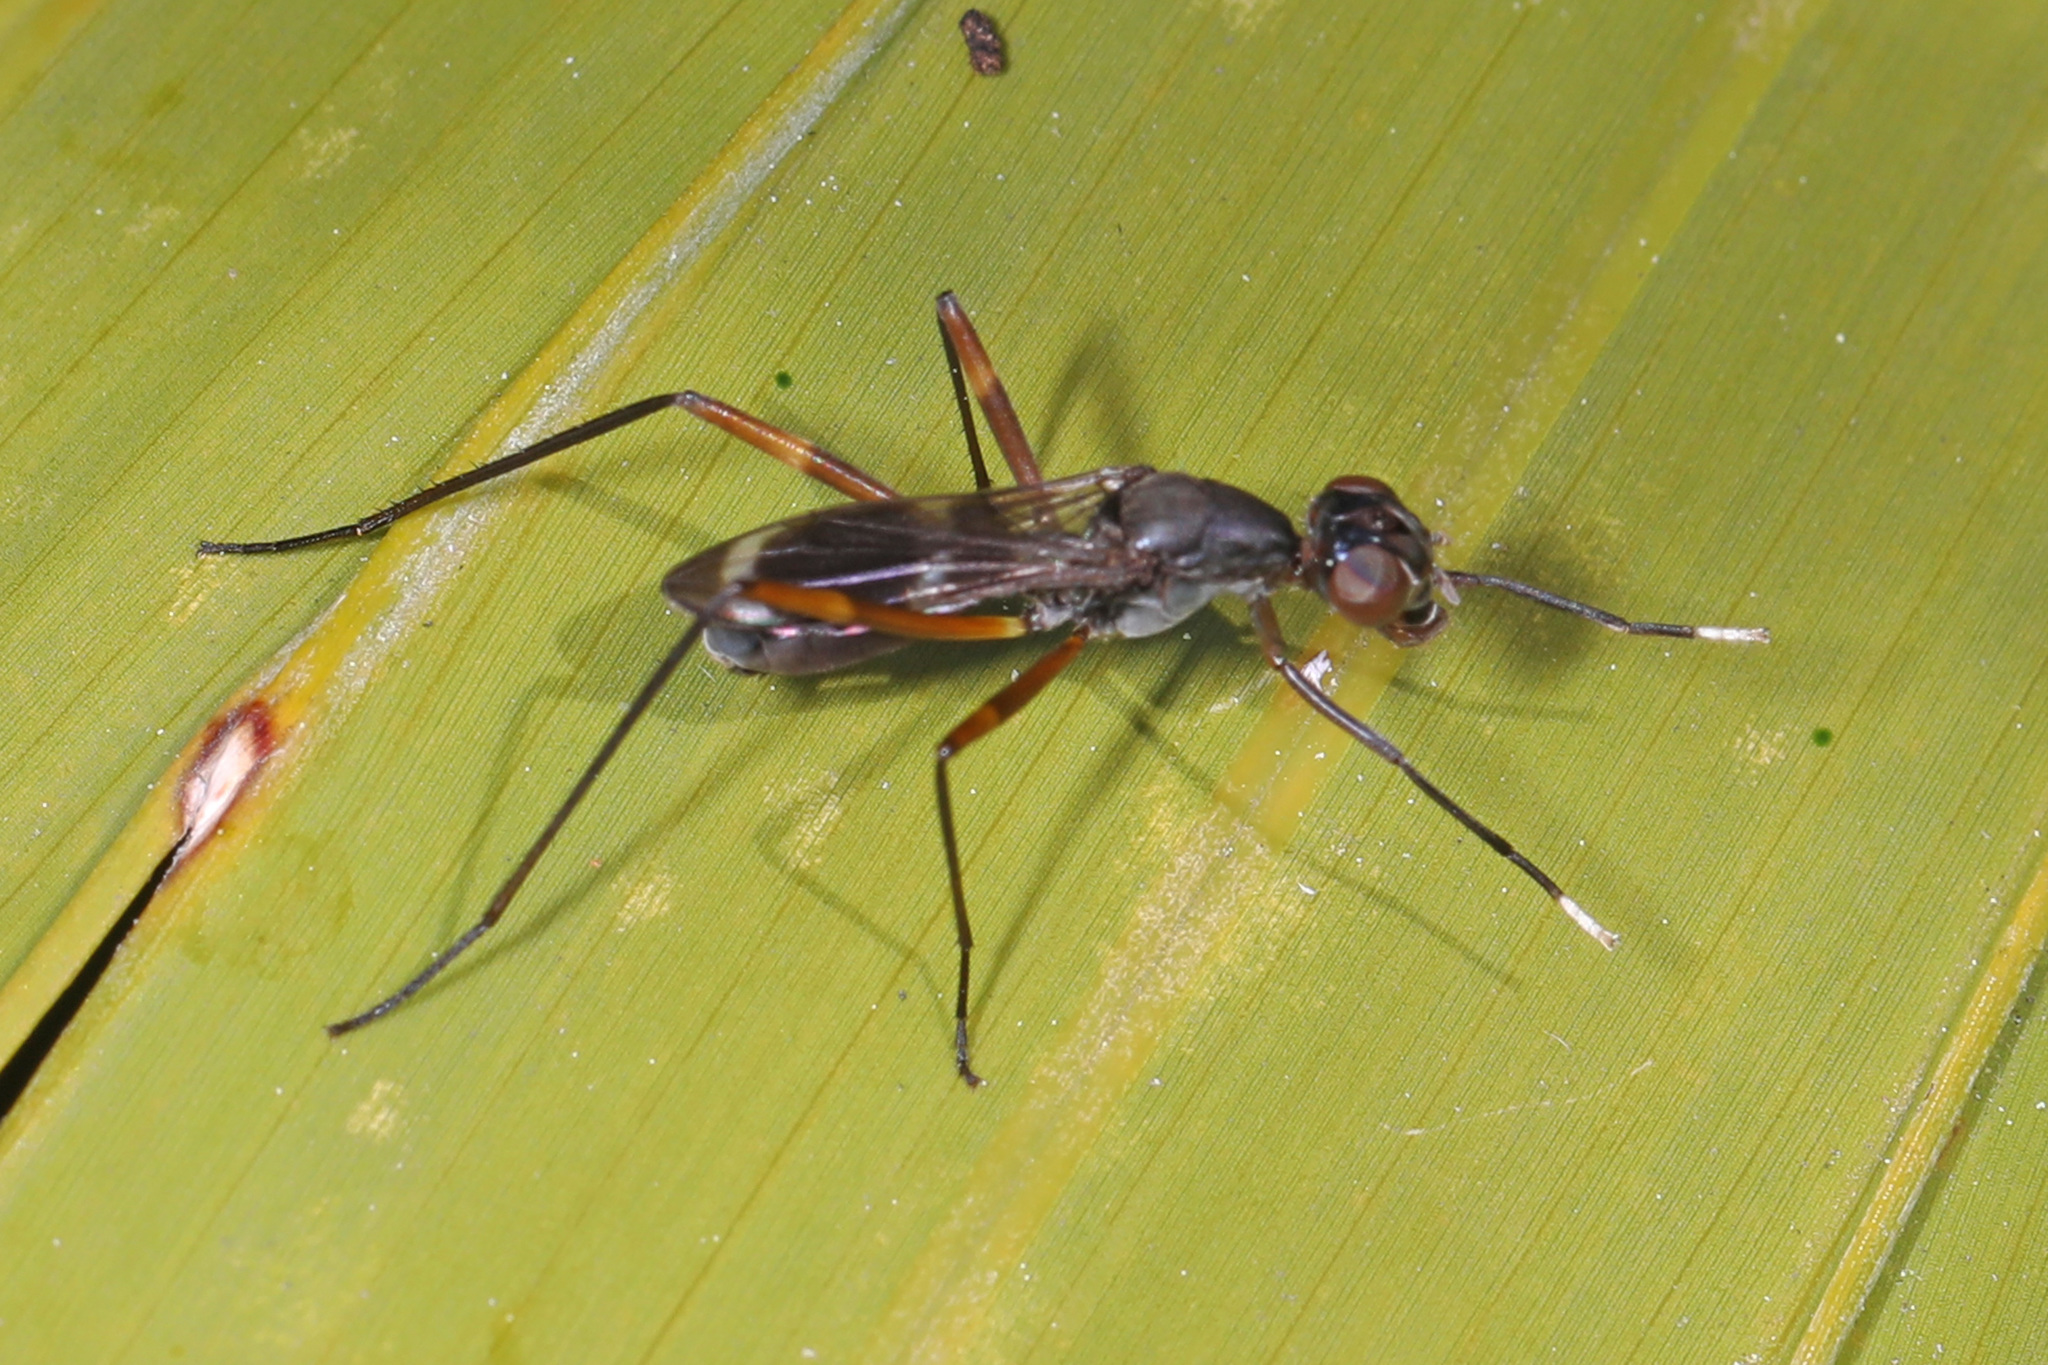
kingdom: Animalia
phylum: Arthropoda
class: Insecta
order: Diptera
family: Micropezidae
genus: Taeniaptera
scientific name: Taeniaptera trivittata
